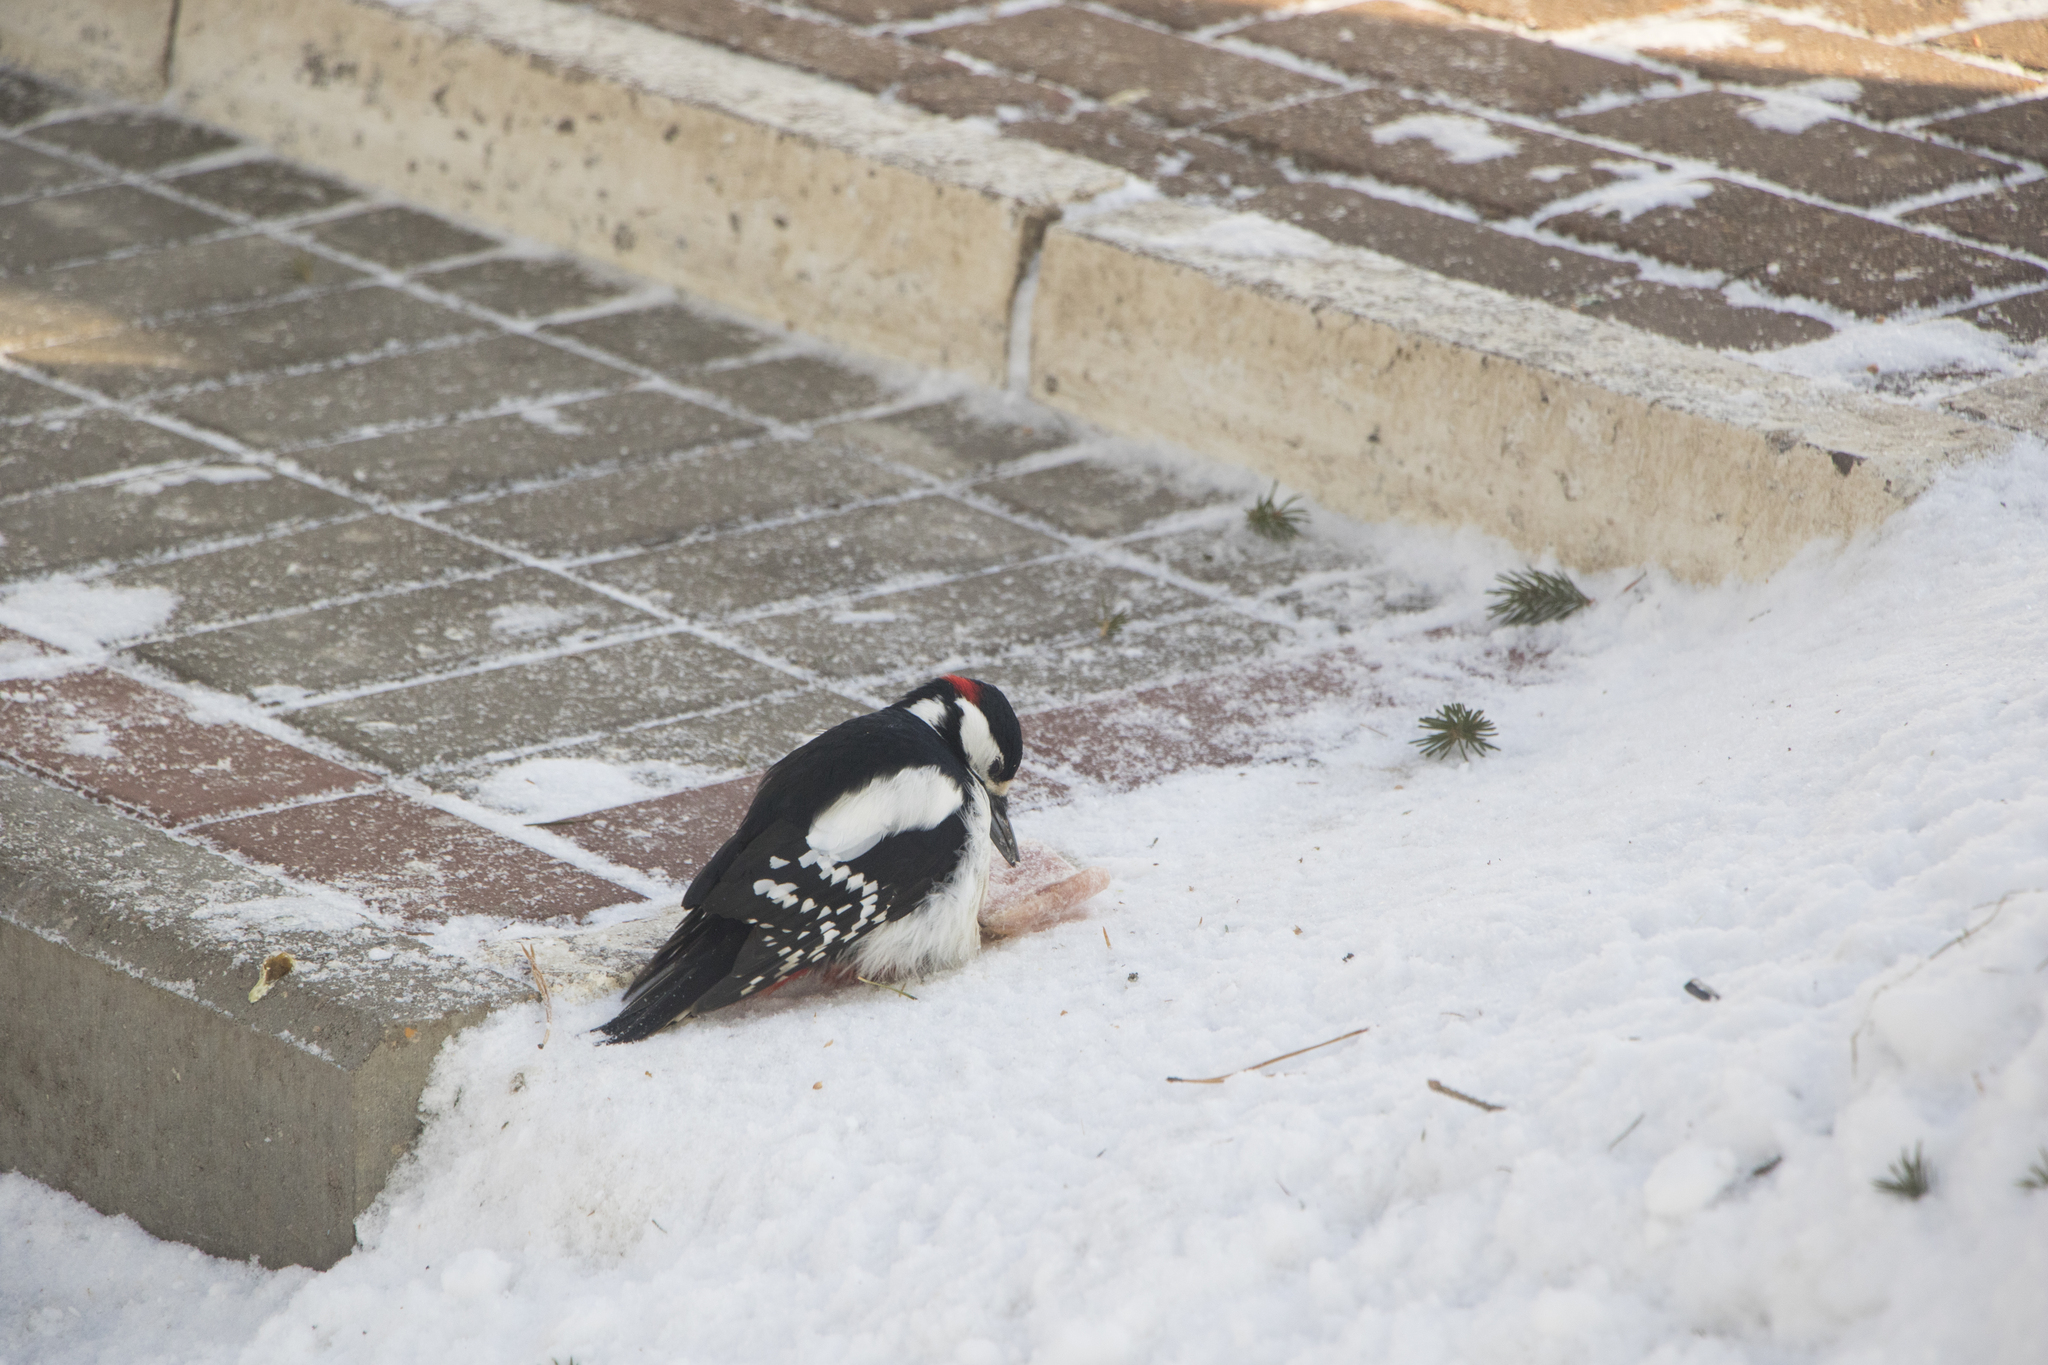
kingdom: Animalia
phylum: Chordata
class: Aves
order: Piciformes
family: Picidae
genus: Dendrocopos
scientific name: Dendrocopos major
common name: Great spotted woodpecker
